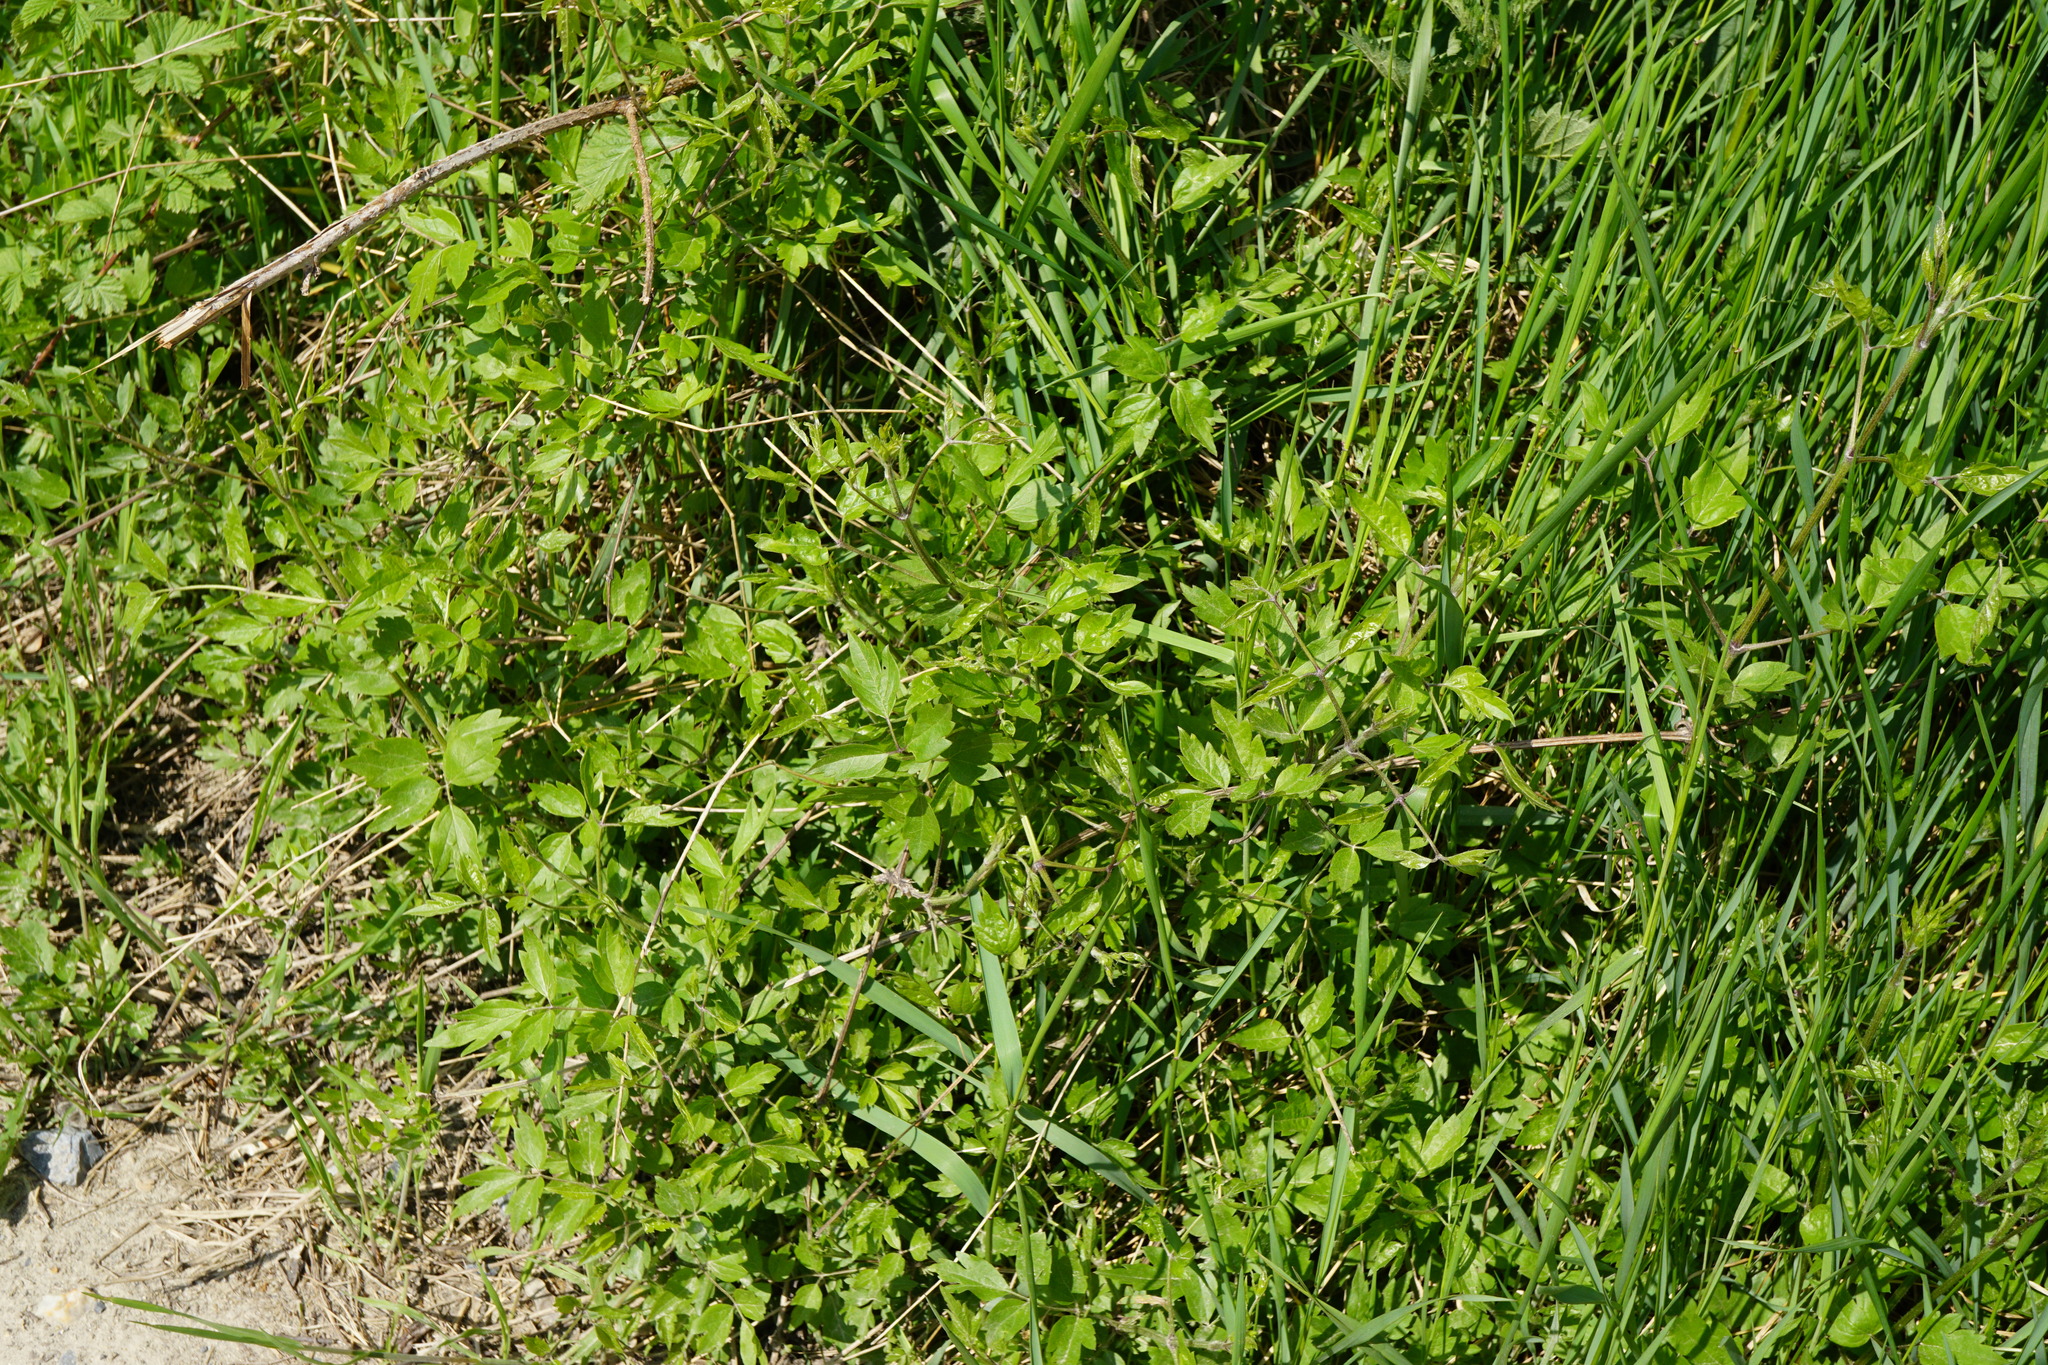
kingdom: Plantae
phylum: Tracheophyta
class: Magnoliopsida
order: Ranunculales
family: Ranunculaceae
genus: Clematis
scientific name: Clematis vitalba
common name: Evergreen clematis
